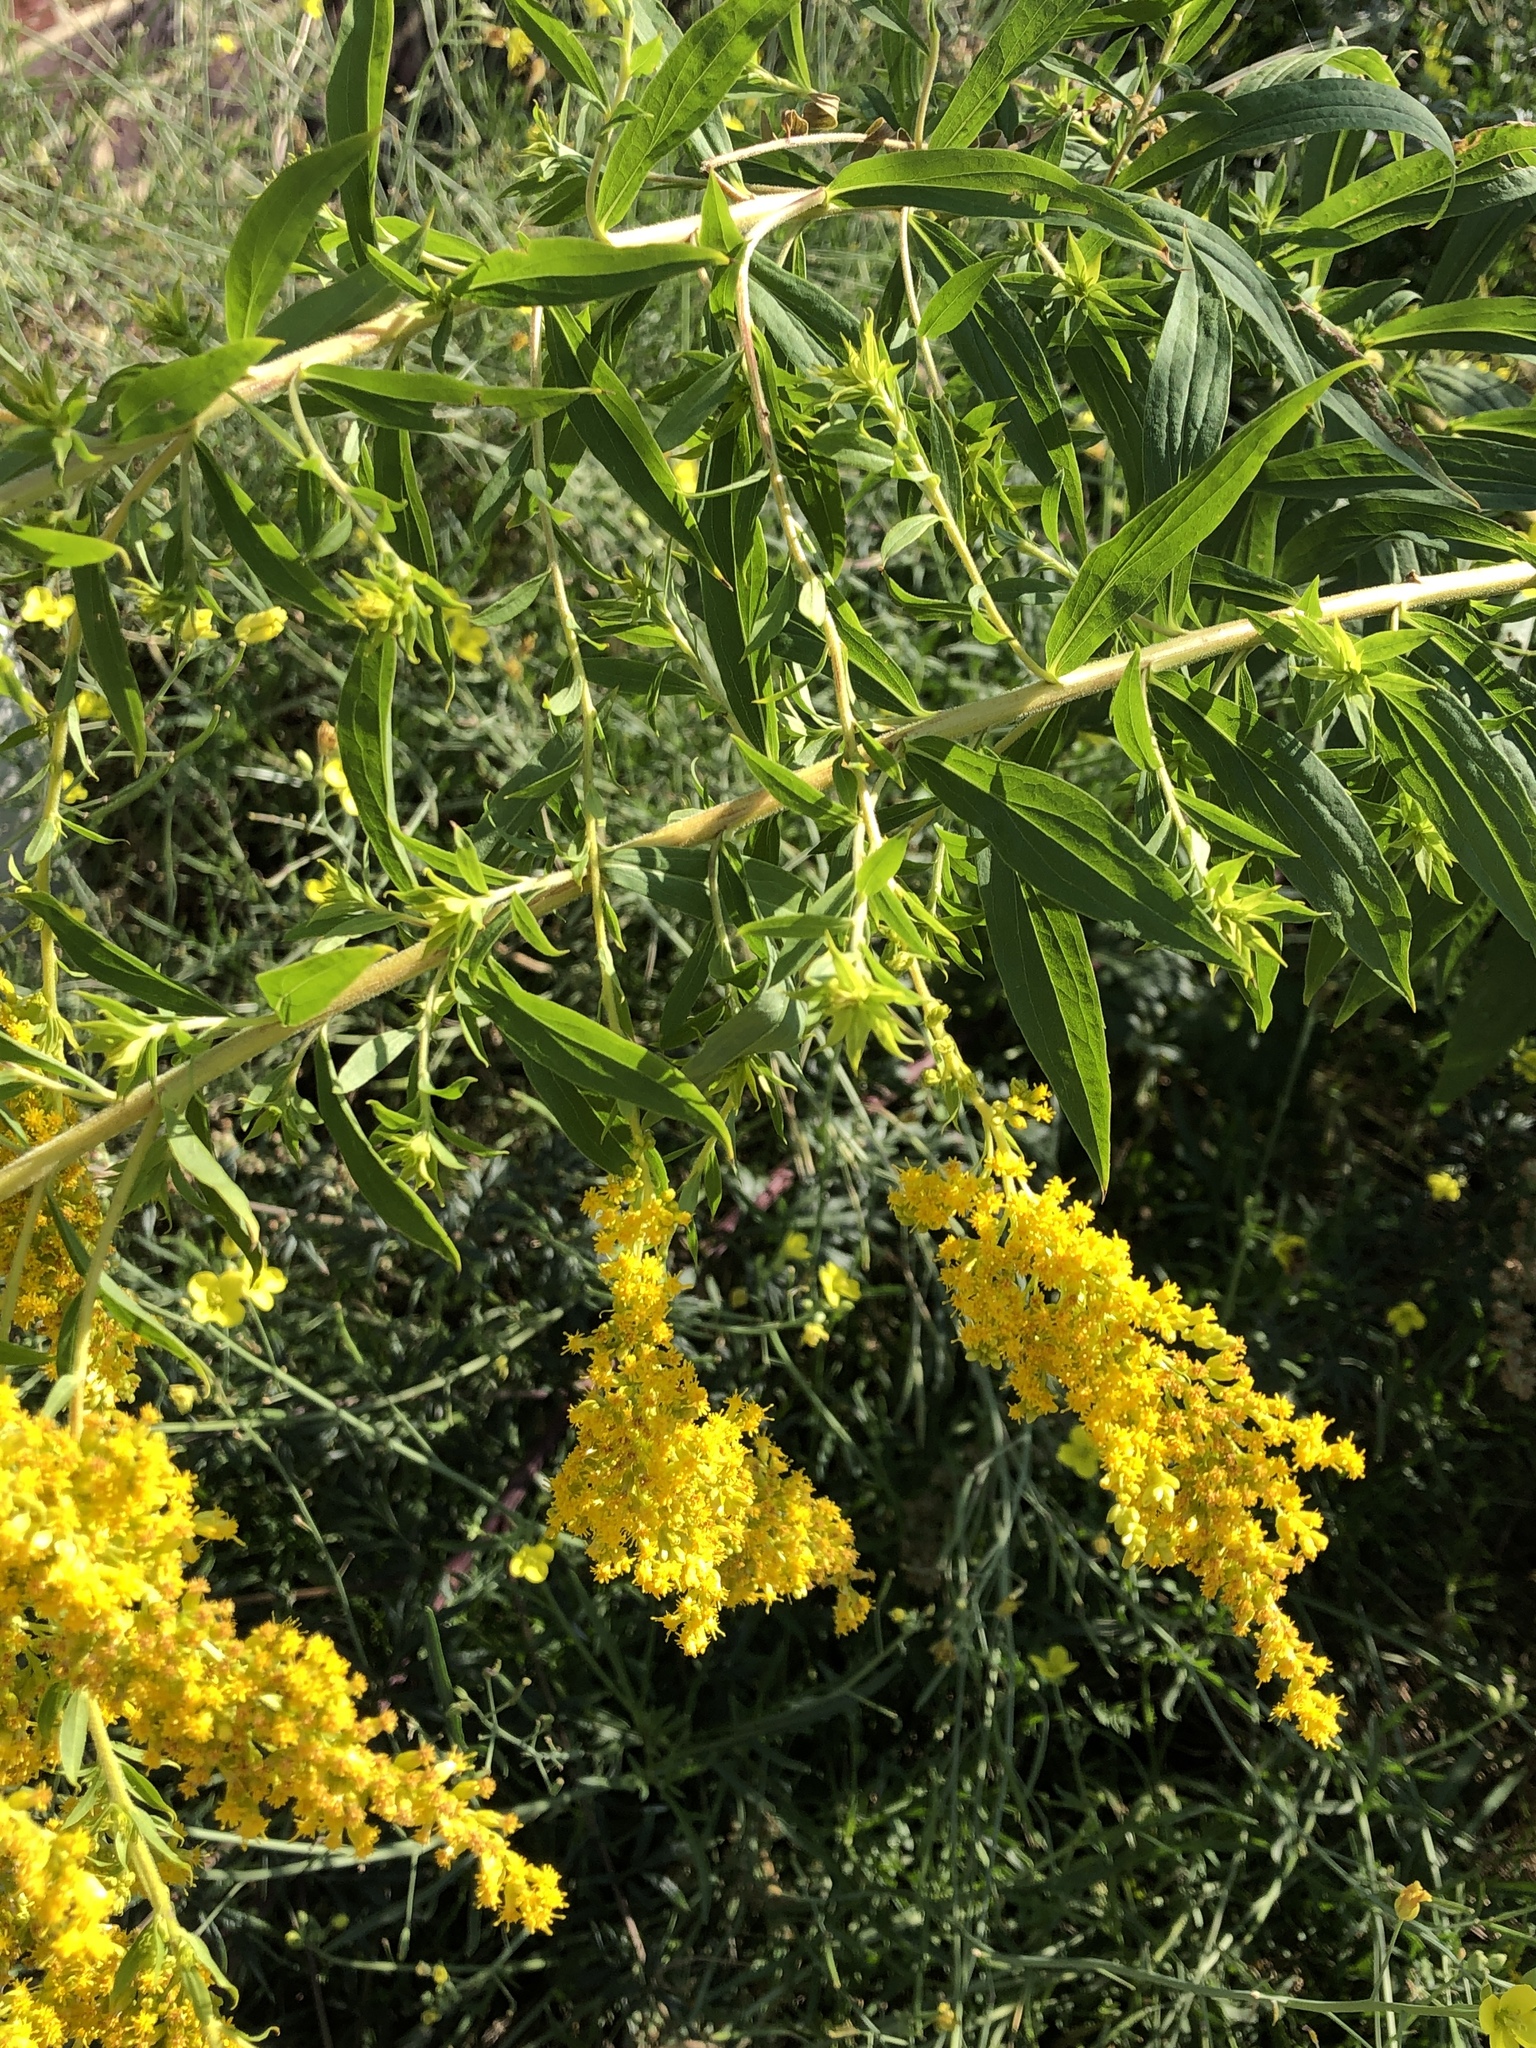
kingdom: Plantae
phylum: Tracheophyta
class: Magnoliopsida
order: Asterales
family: Asteraceae
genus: Solidago
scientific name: Solidago canadensis
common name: Canada goldenrod
